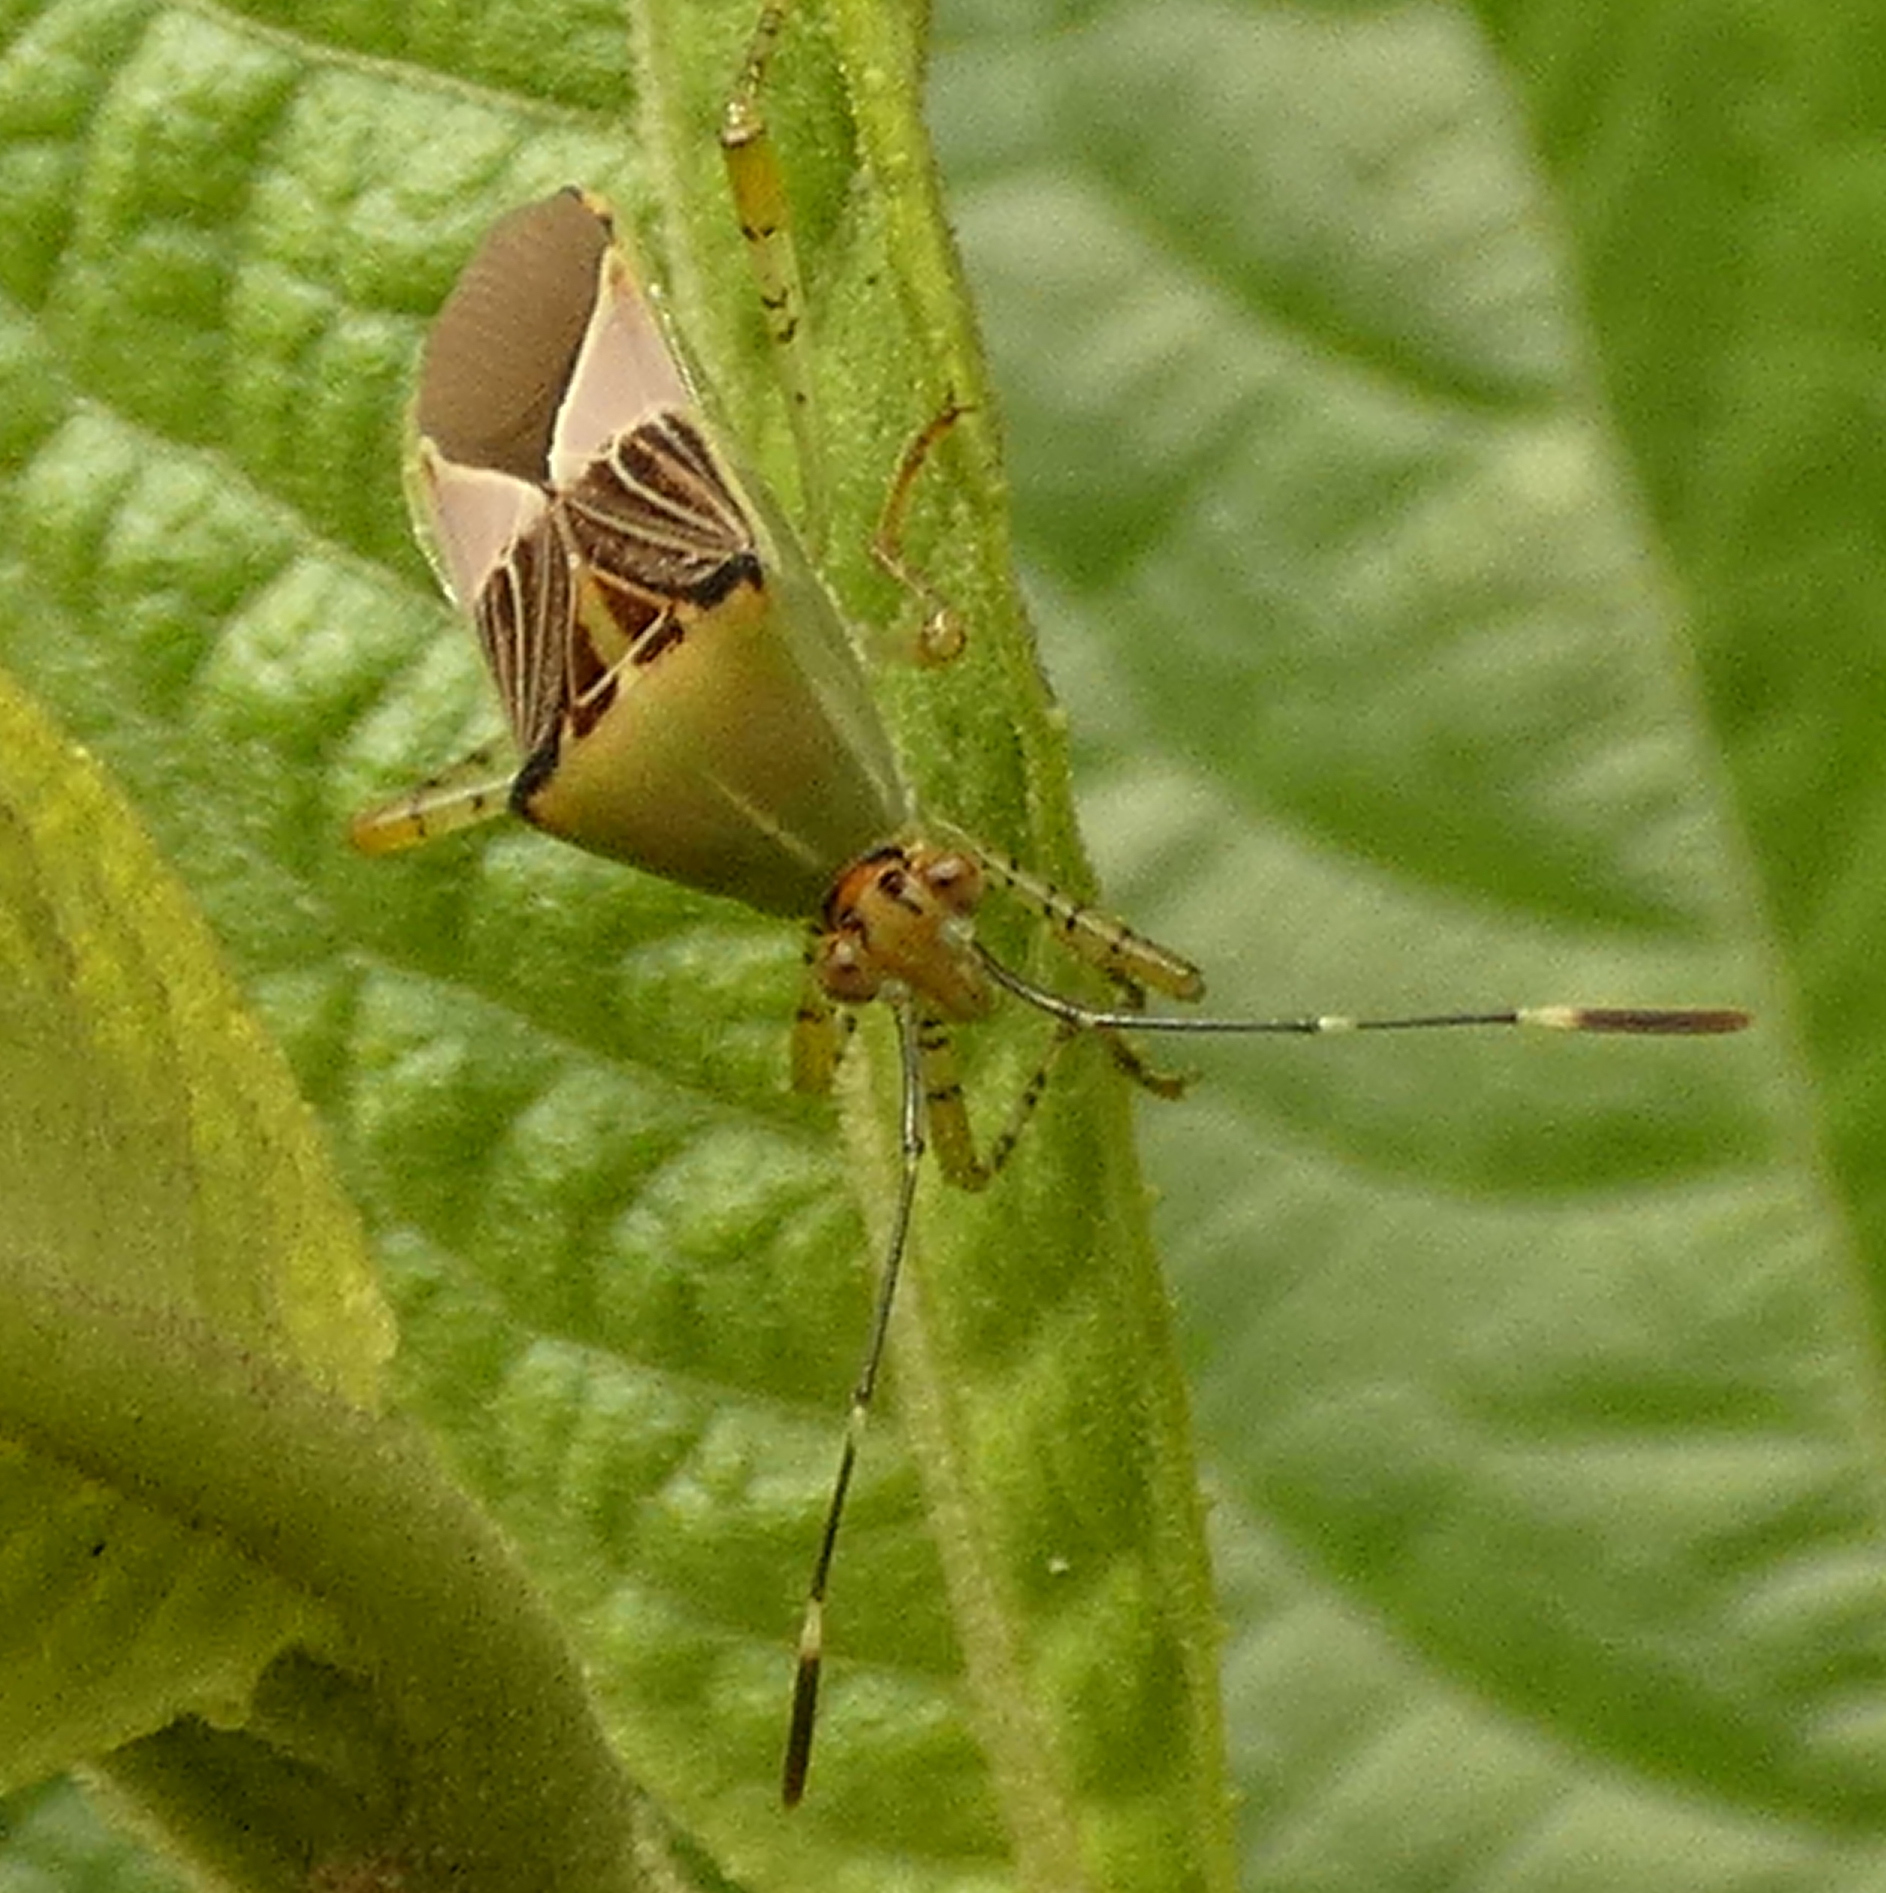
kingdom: Animalia
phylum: Arthropoda
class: Insecta
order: Hemiptera
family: Coreidae
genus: Hypselonotus
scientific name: Hypselonotus fulvus
